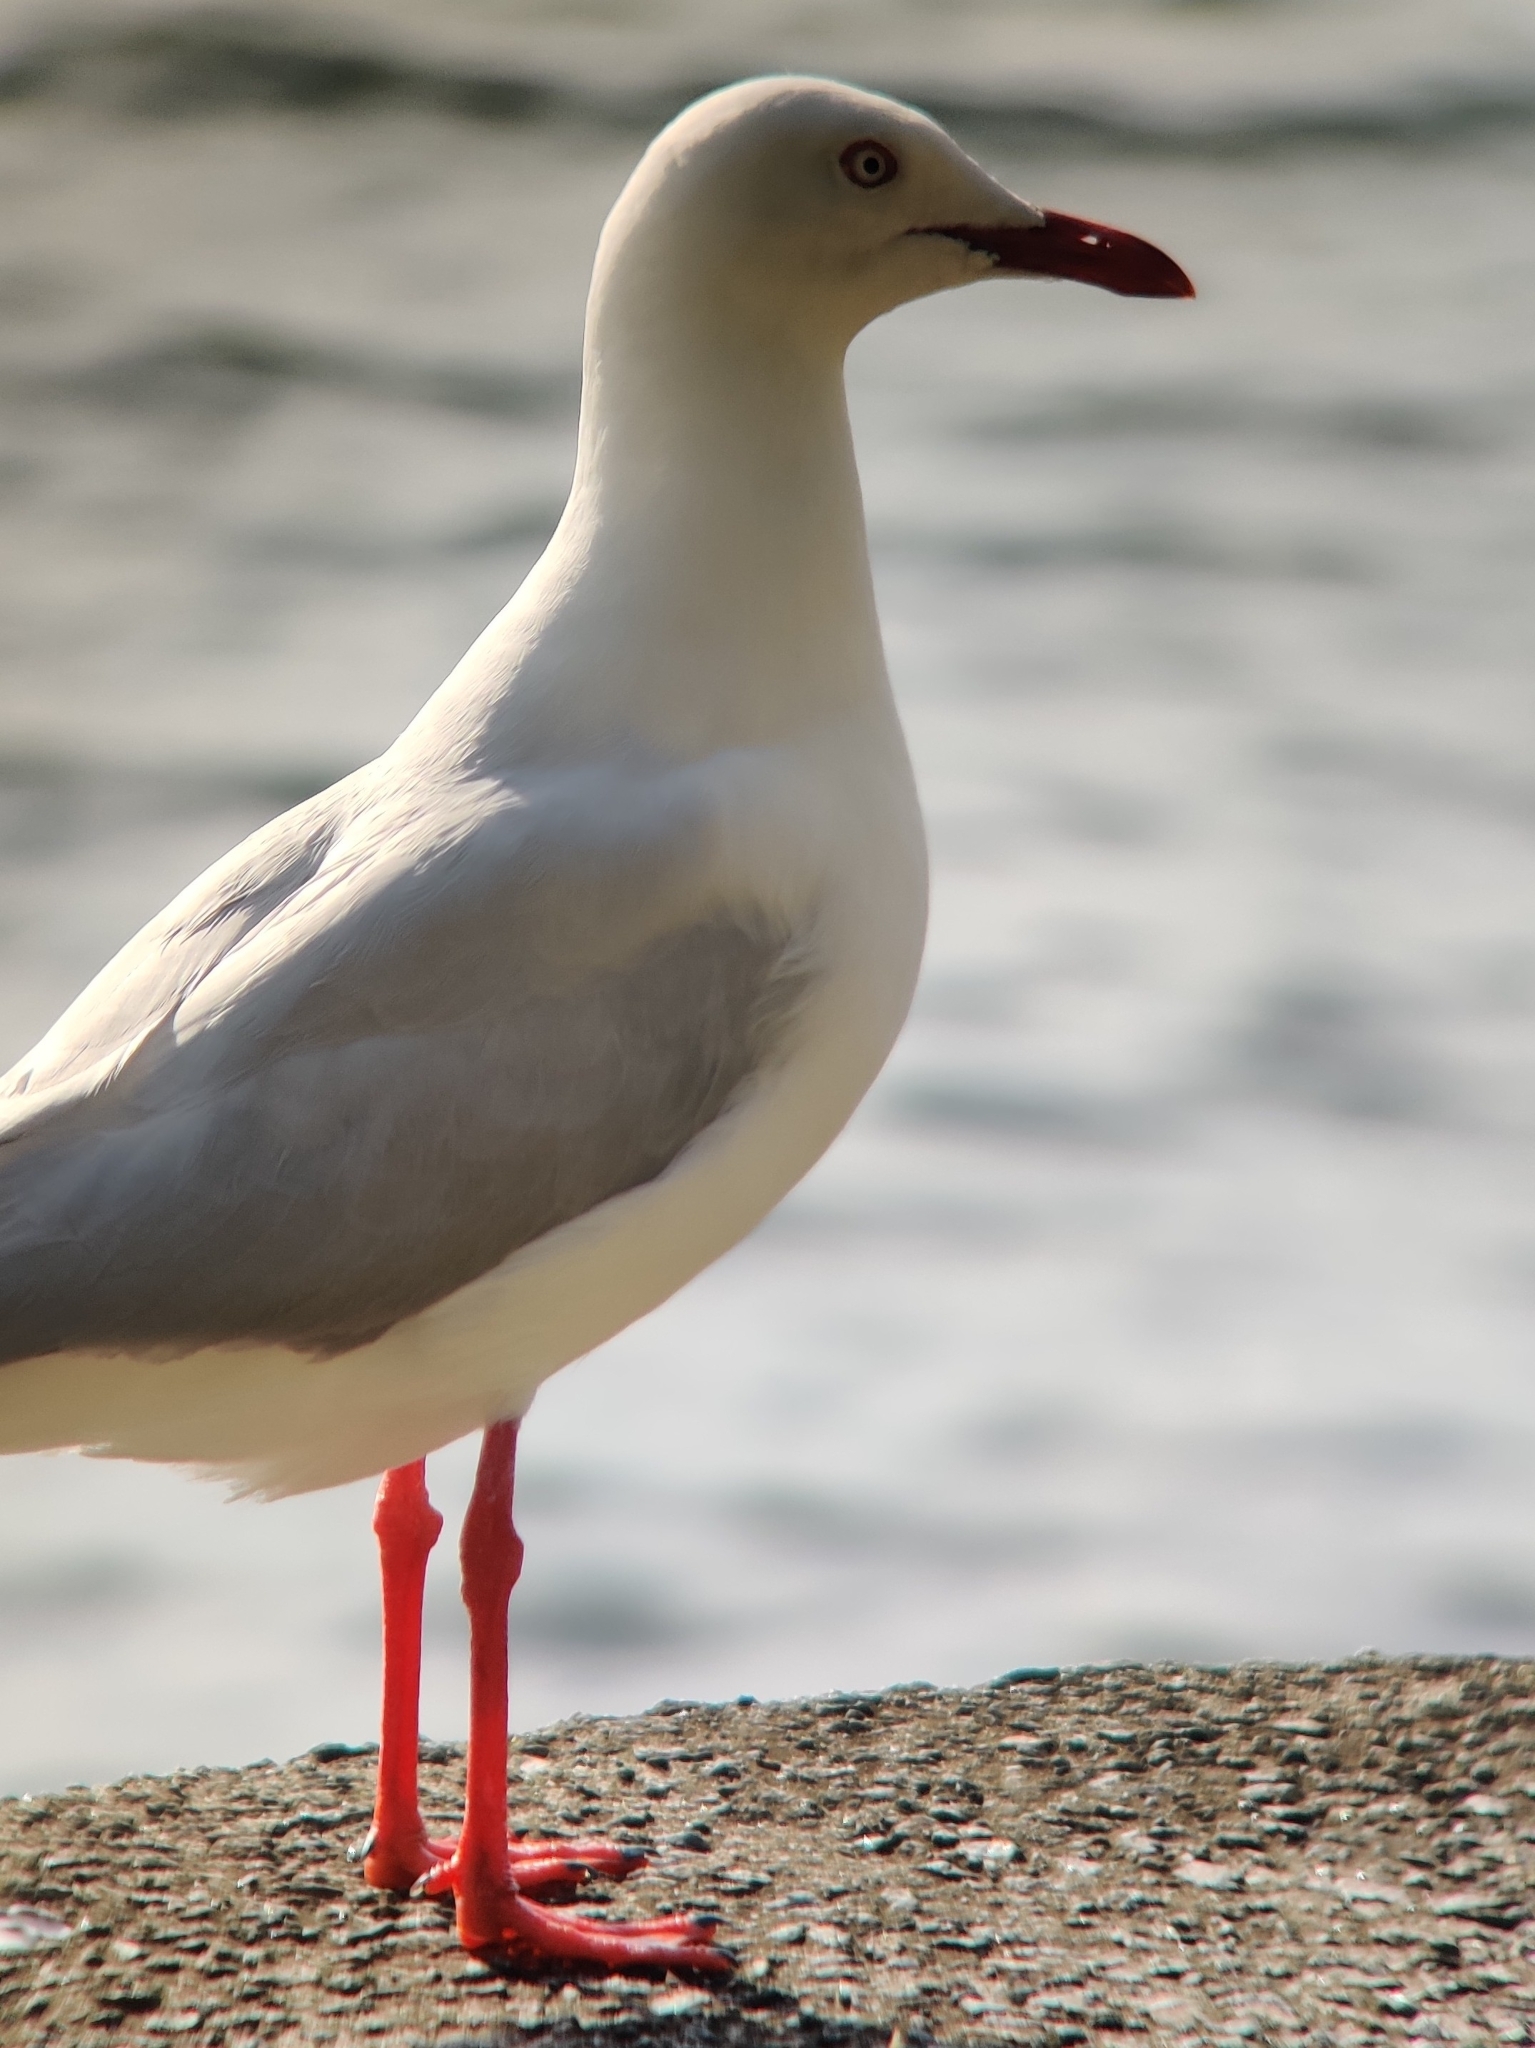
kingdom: Animalia
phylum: Chordata
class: Aves
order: Charadriiformes
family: Laridae
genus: Chroicocephalus
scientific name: Chroicocephalus novaehollandiae
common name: Silver gull
